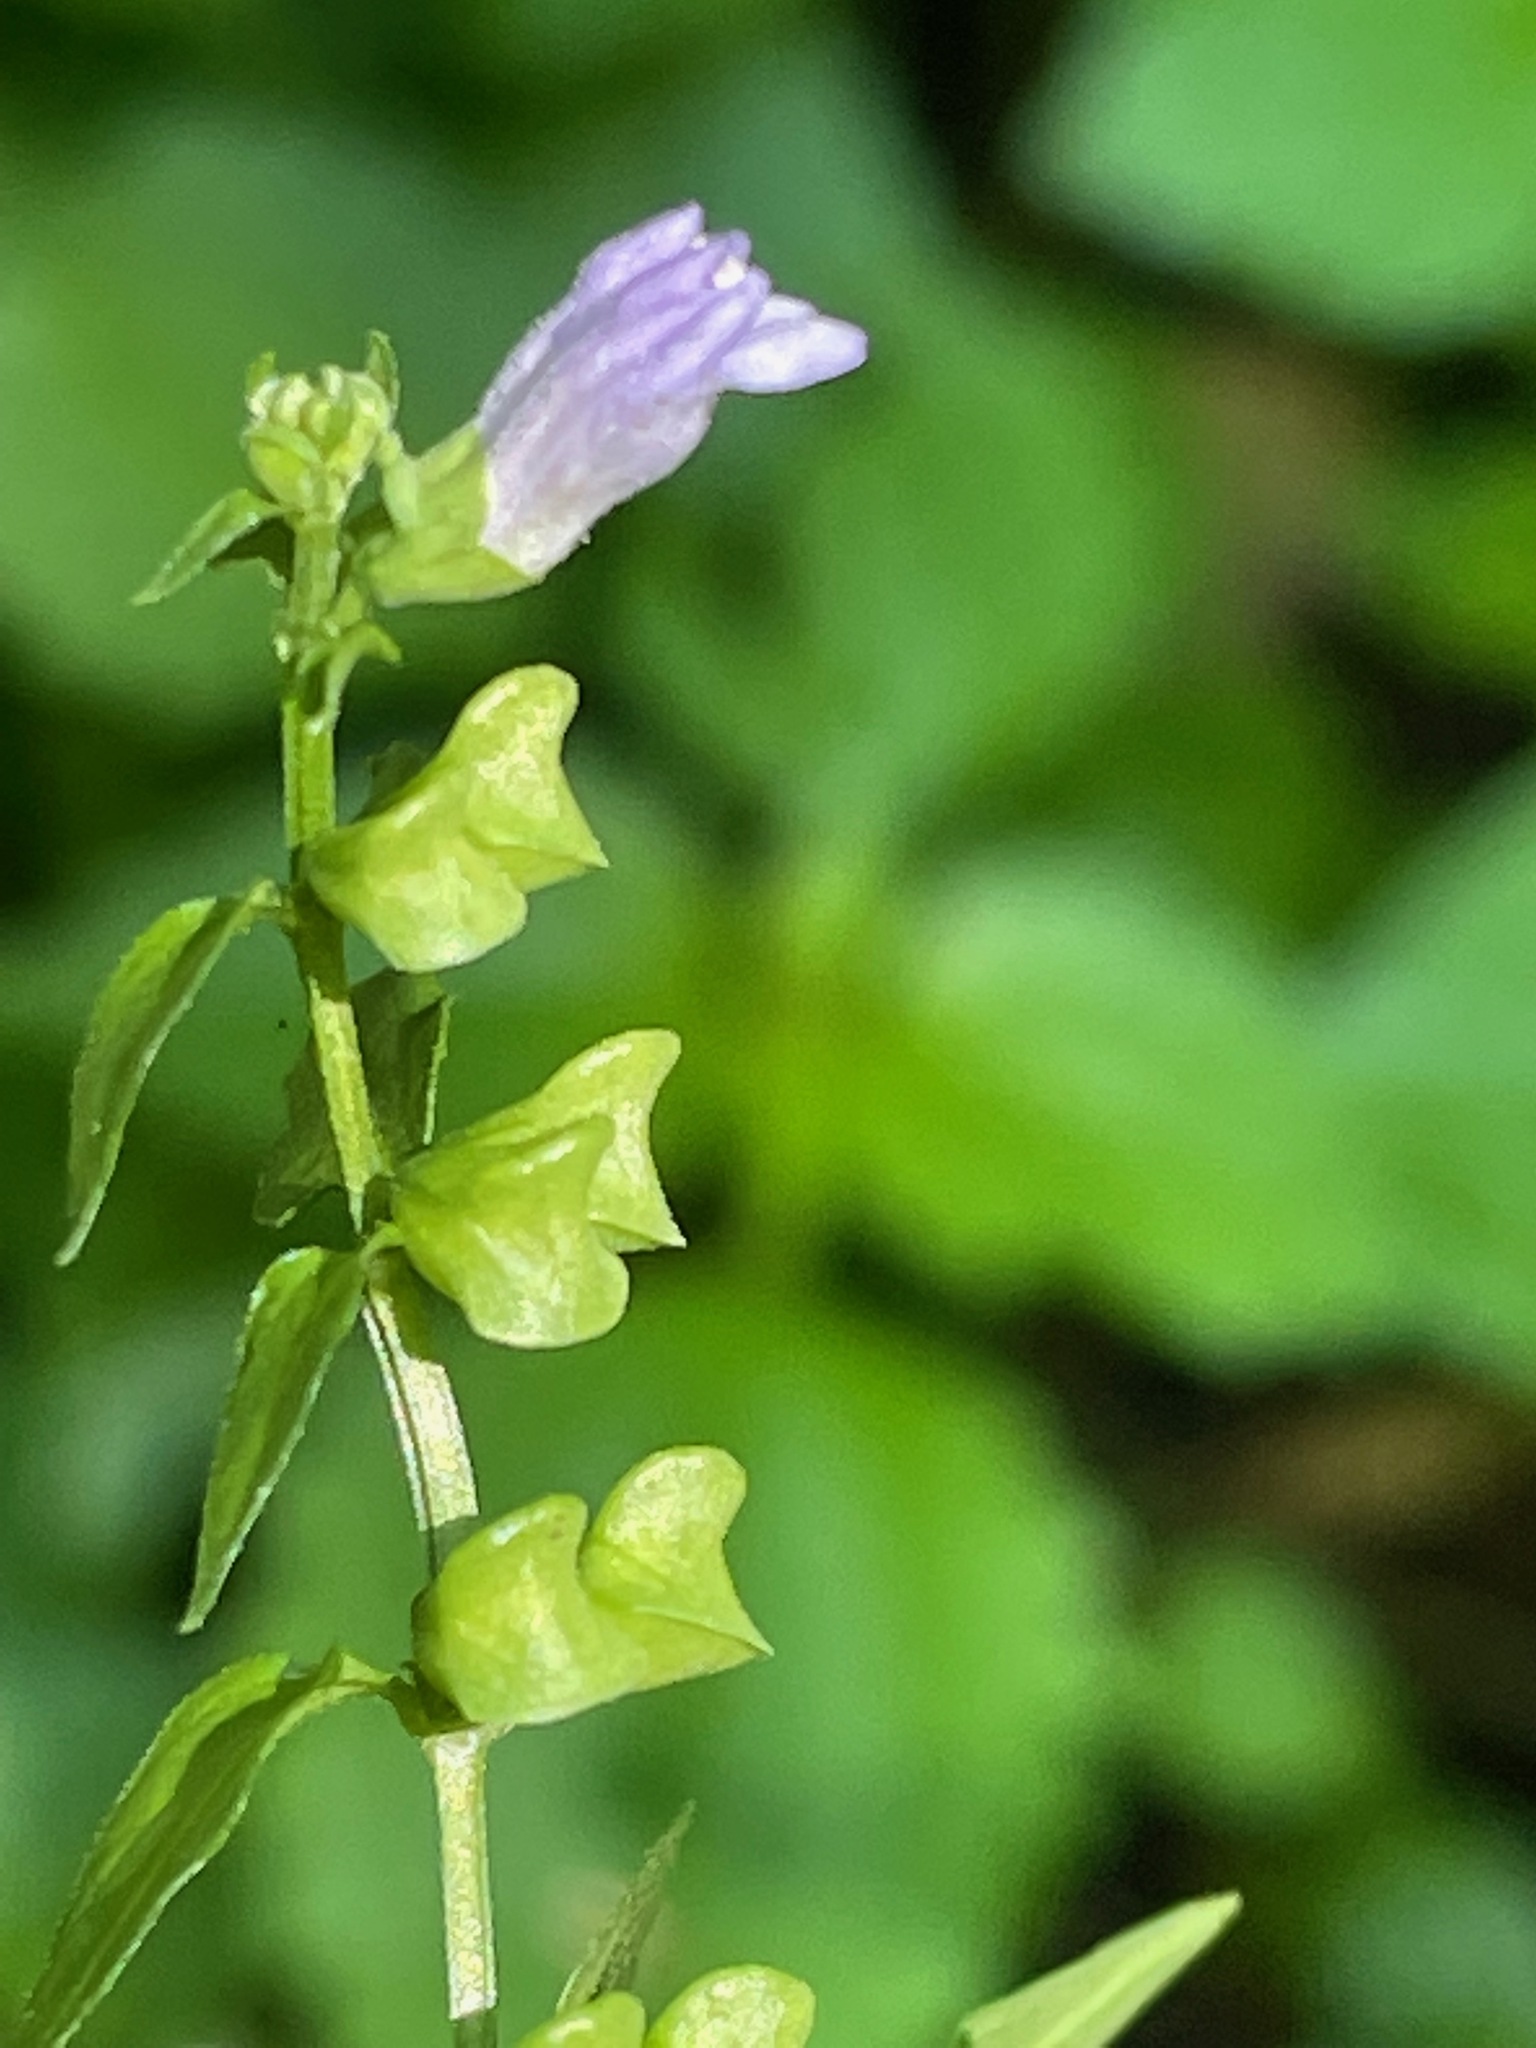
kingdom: Plantae
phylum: Tracheophyta
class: Magnoliopsida
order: Lamiales
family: Lamiaceae
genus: Scutellaria
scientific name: Scutellaria lateriflora
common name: Blue skullcap
